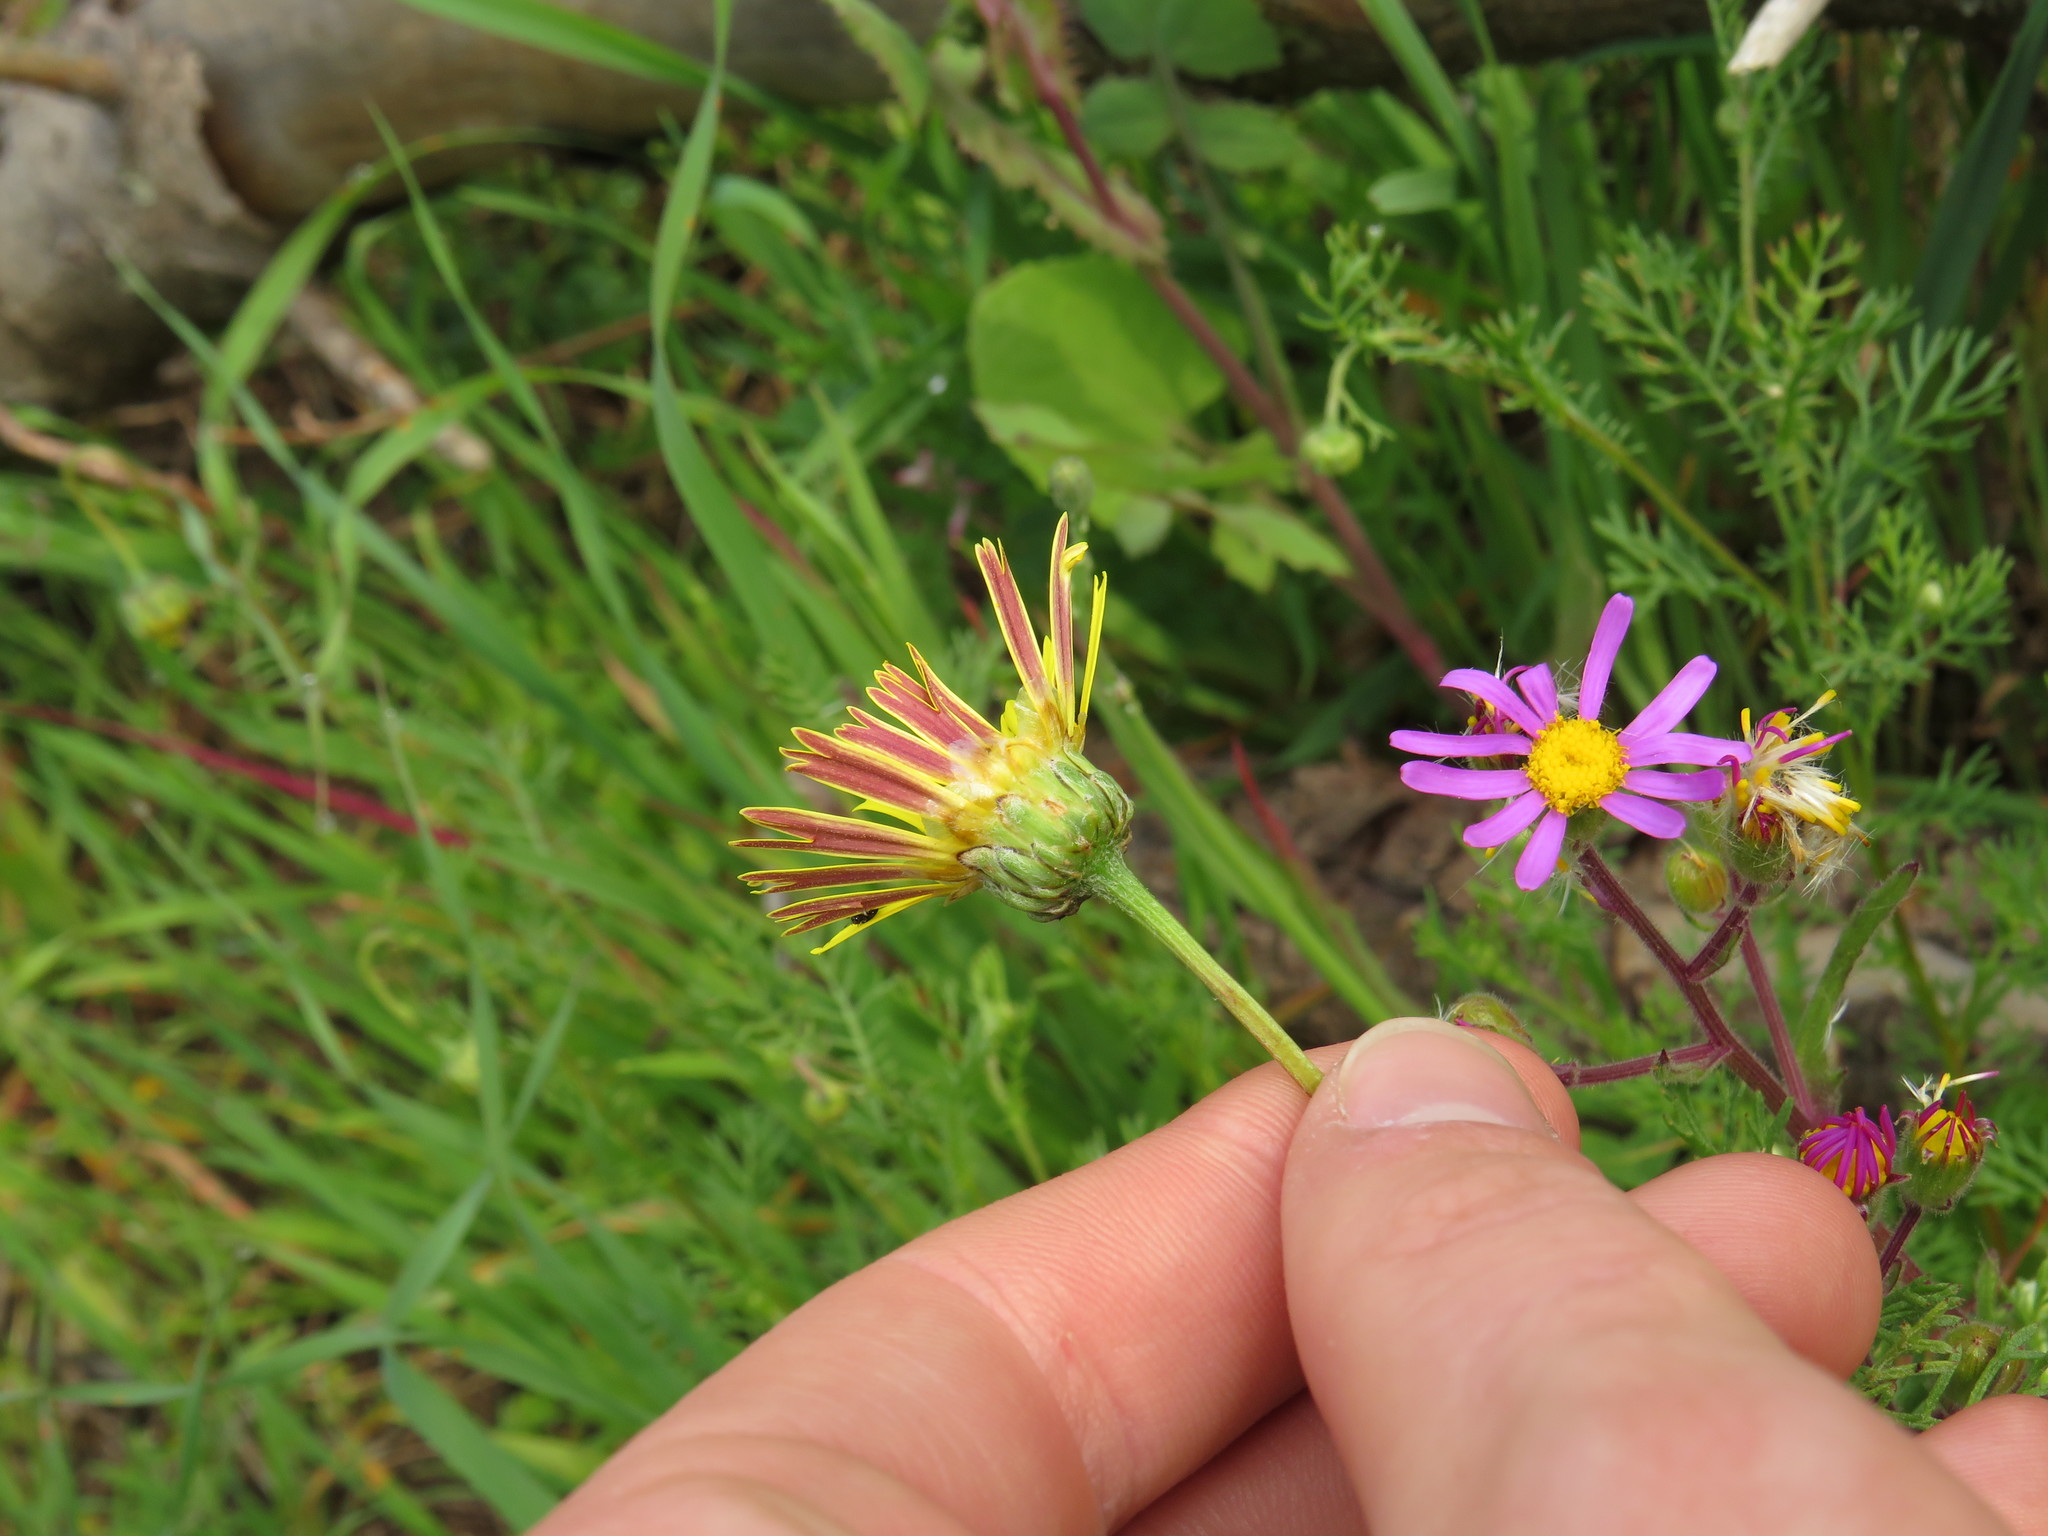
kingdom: Plantae
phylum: Tracheophyta
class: Magnoliopsida
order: Asterales
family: Asteraceae
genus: Ursinia
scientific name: Ursinia anthemoides
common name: Ursinia
